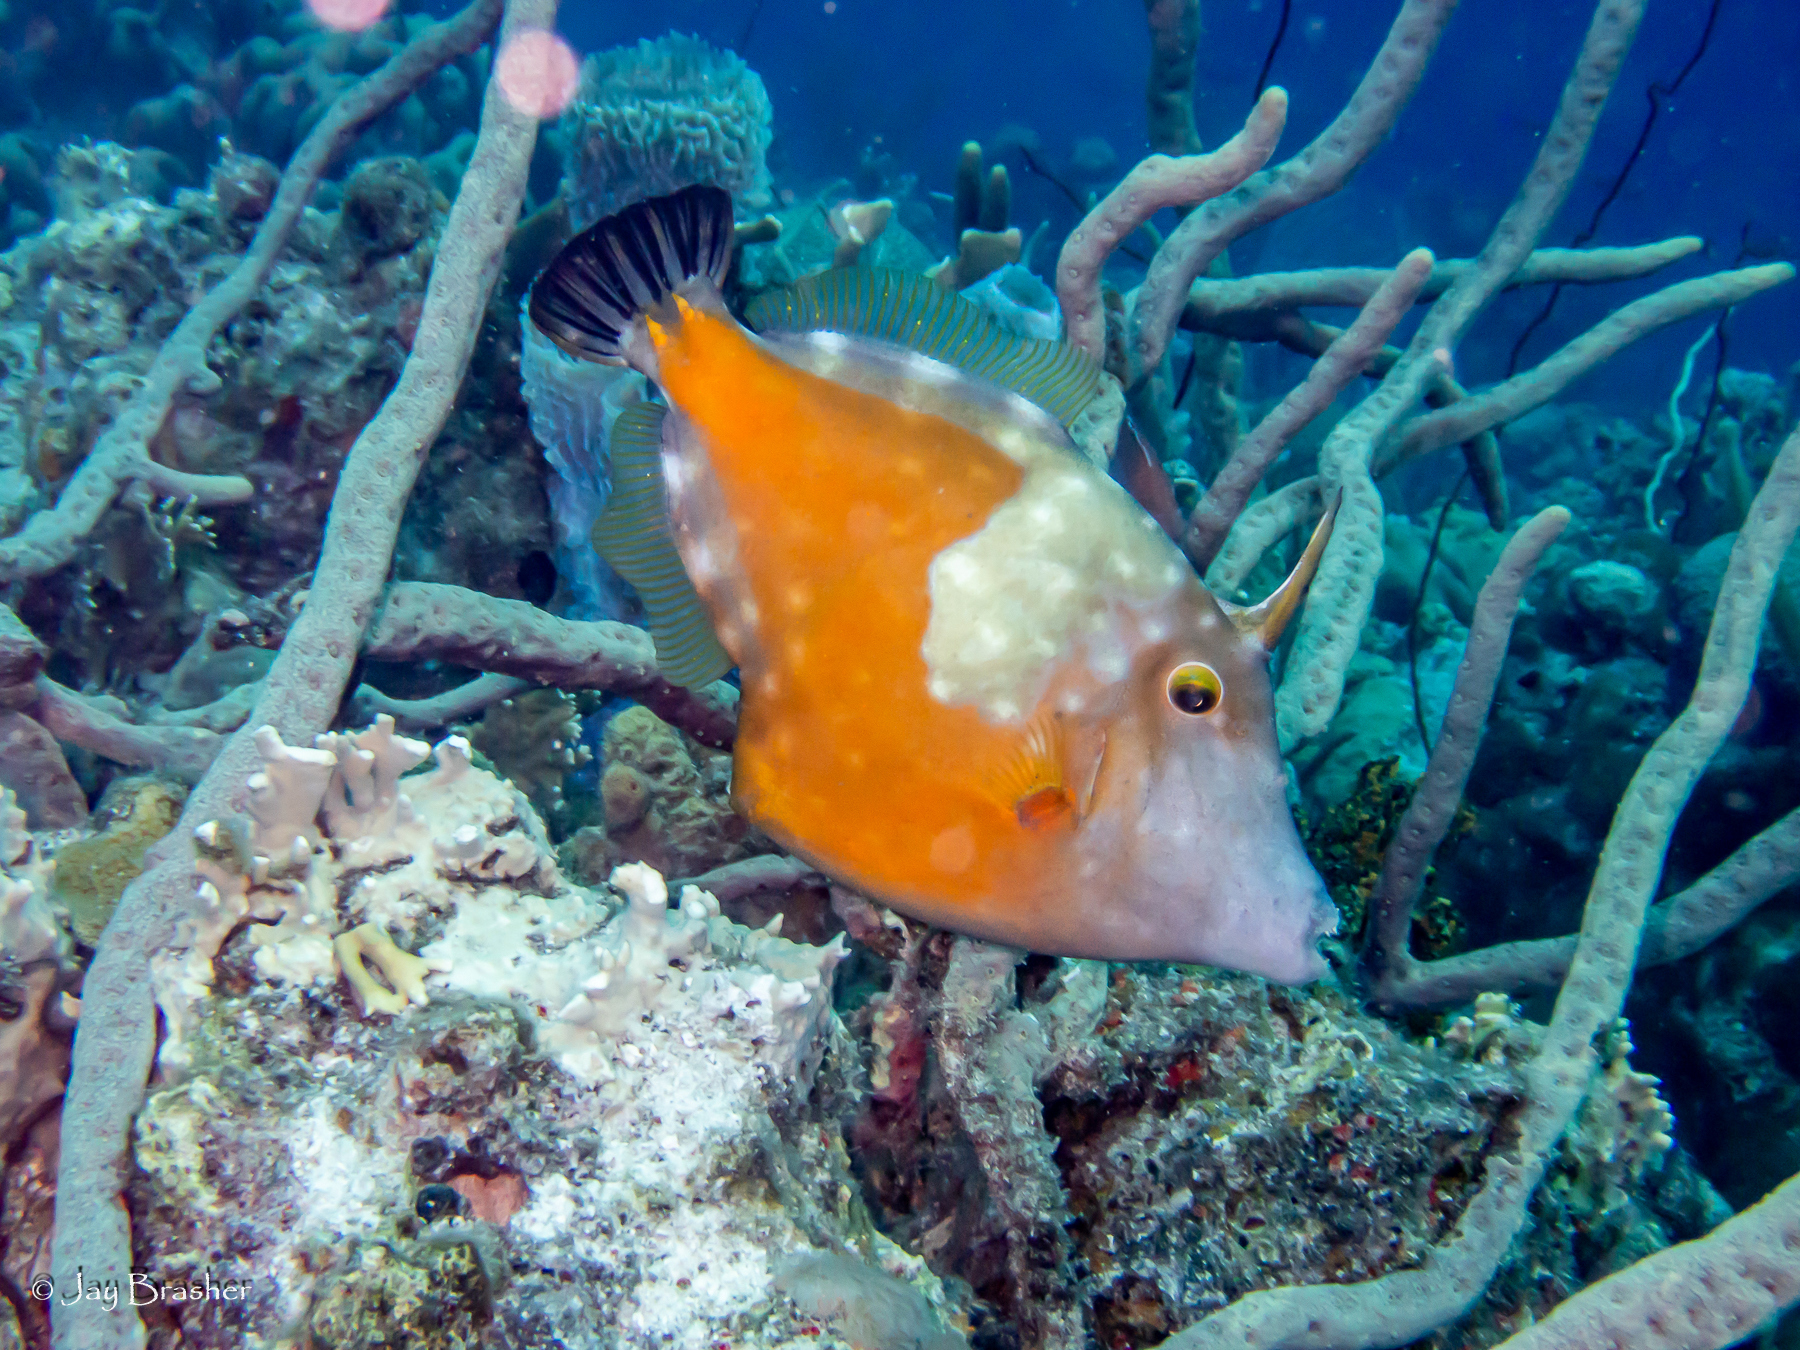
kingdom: Animalia
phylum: Porifera
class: Demospongiae
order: Verongiida
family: Aplysinidae
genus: Aplysina
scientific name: Aplysina cauliformis
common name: Branching candle sponge
